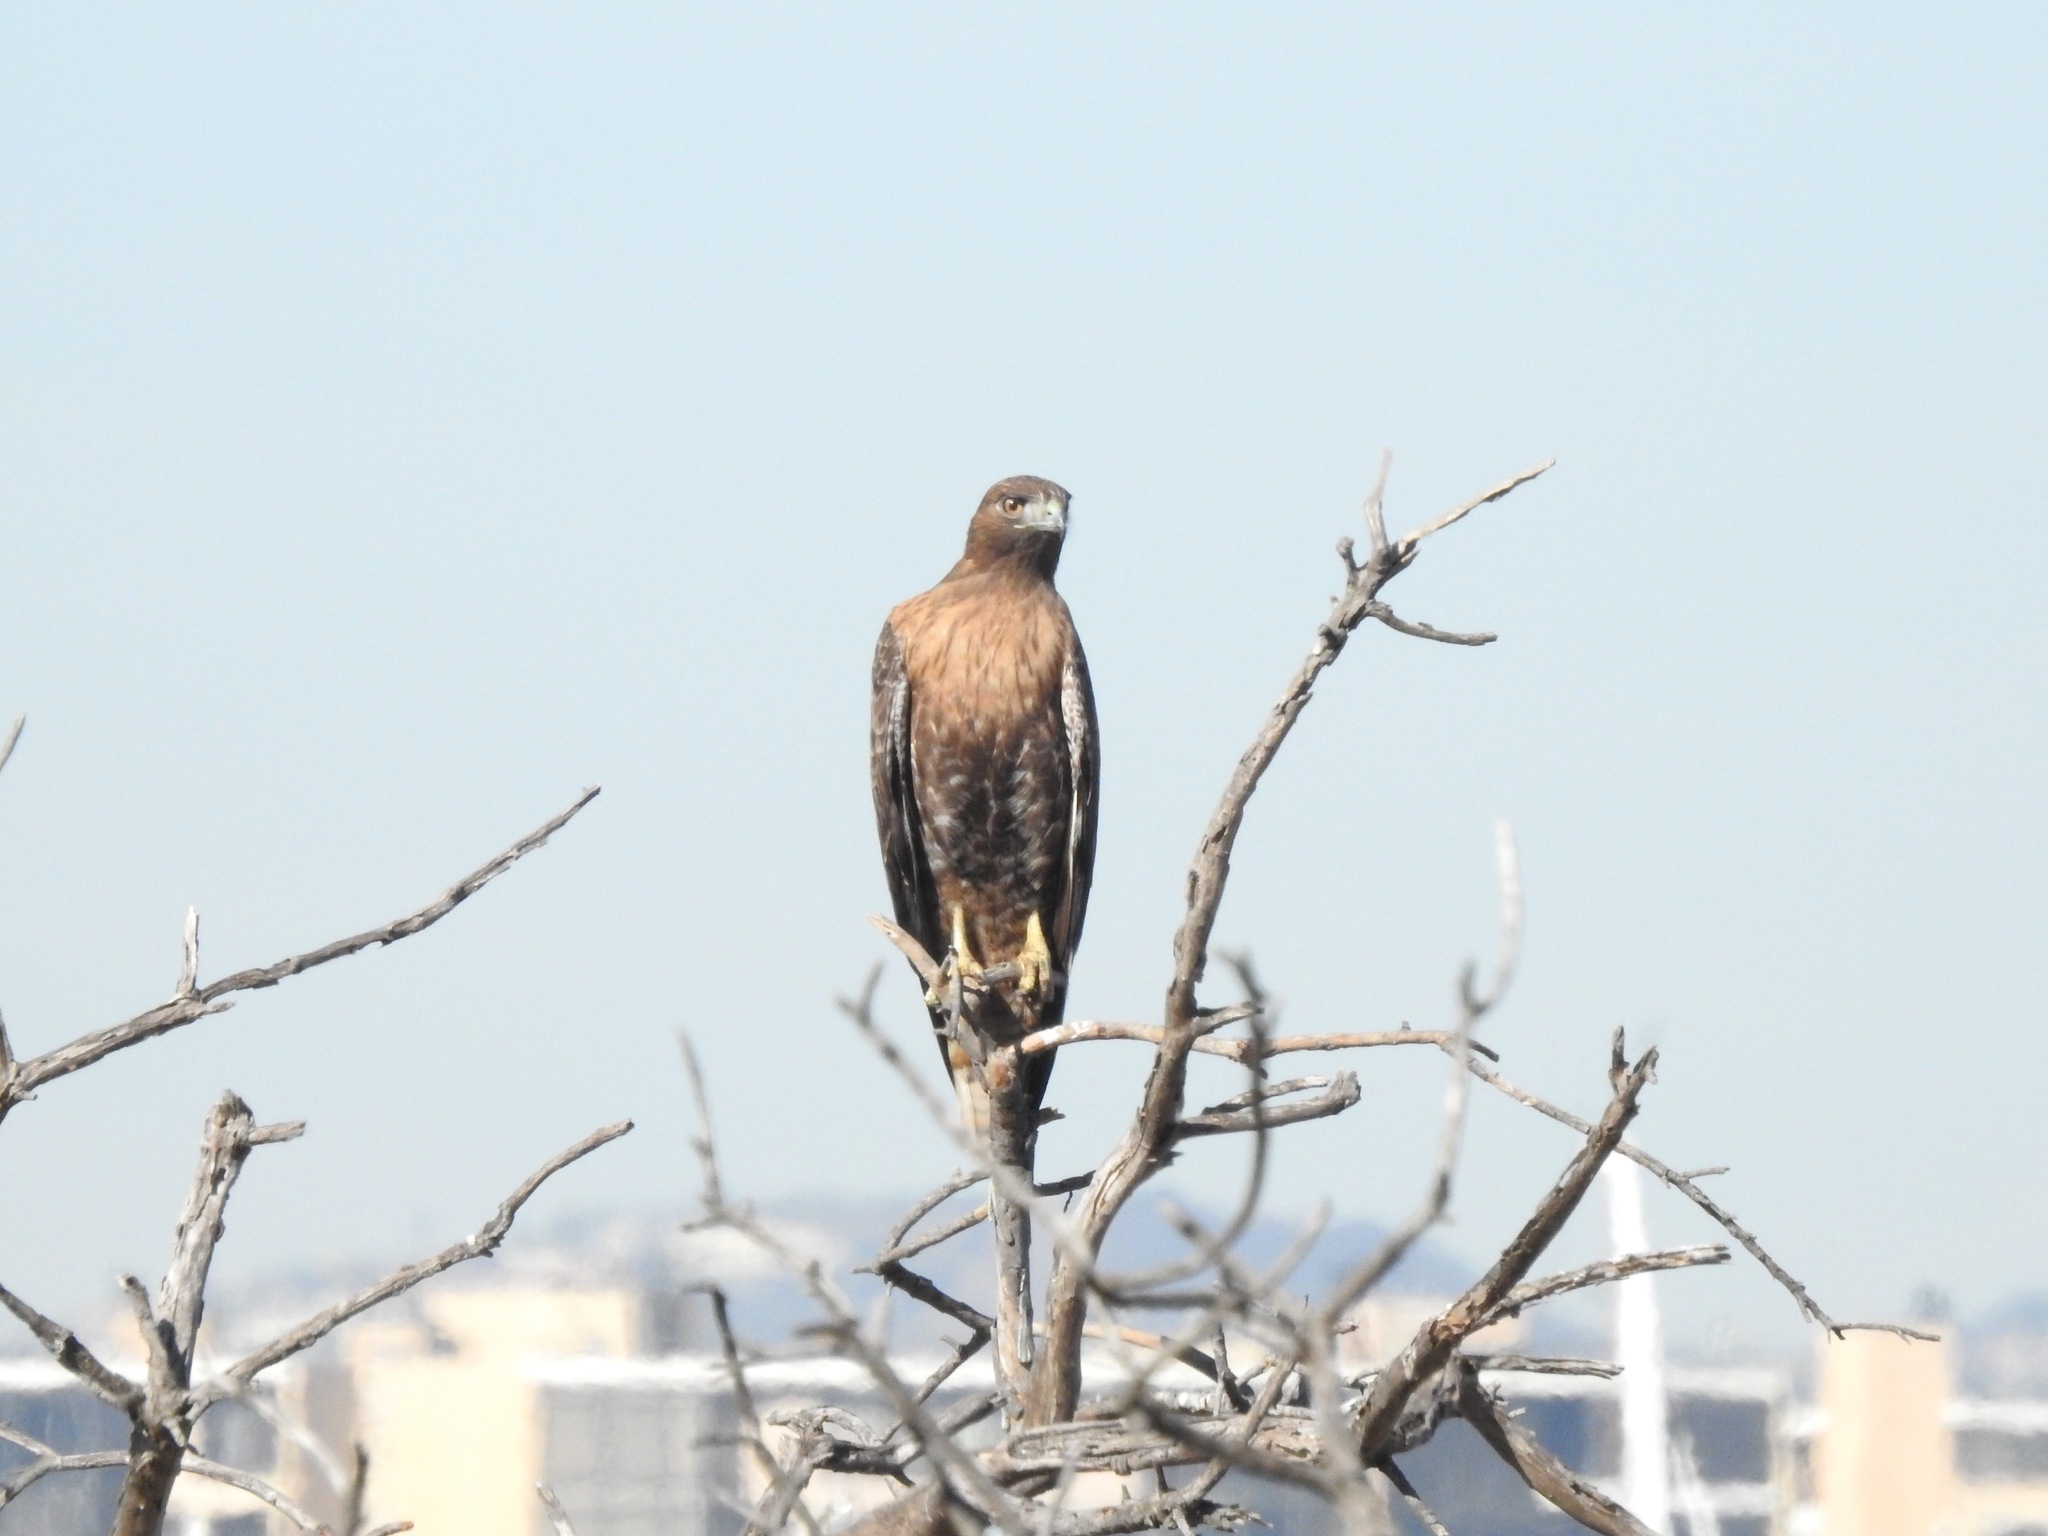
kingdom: Animalia
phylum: Chordata
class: Aves
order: Accipitriformes
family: Accipitridae
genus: Buteo
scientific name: Buteo jamaicensis
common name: Red-tailed hawk
